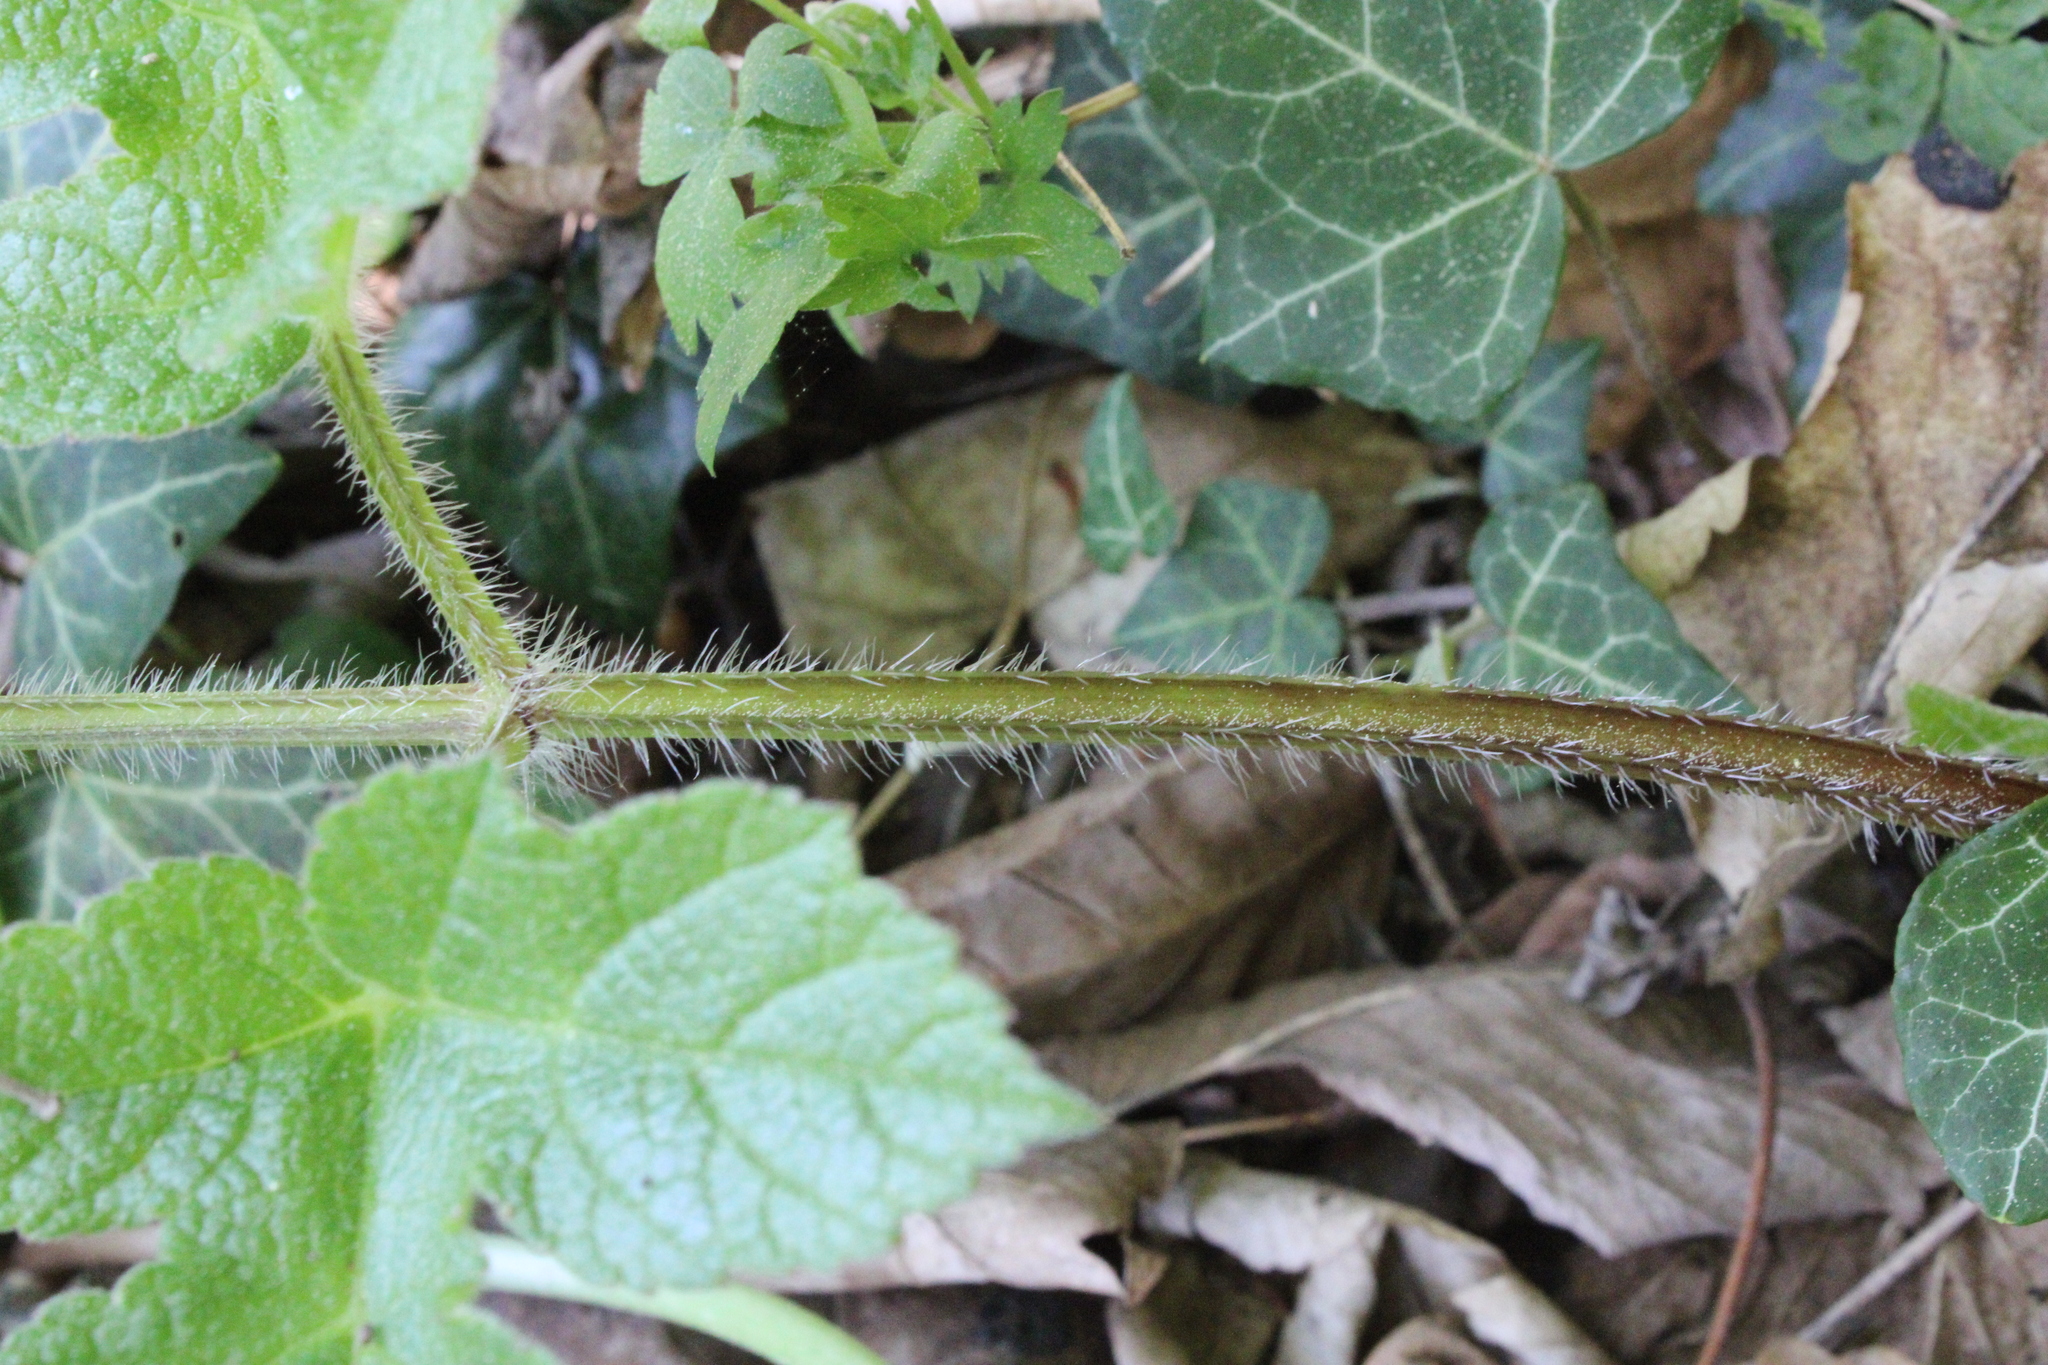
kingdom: Plantae
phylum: Tracheophyta
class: Magnoliopsida
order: Apiales
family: Apiaceae
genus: Heracleum
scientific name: Heracleum sphondylium
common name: Hogweed
